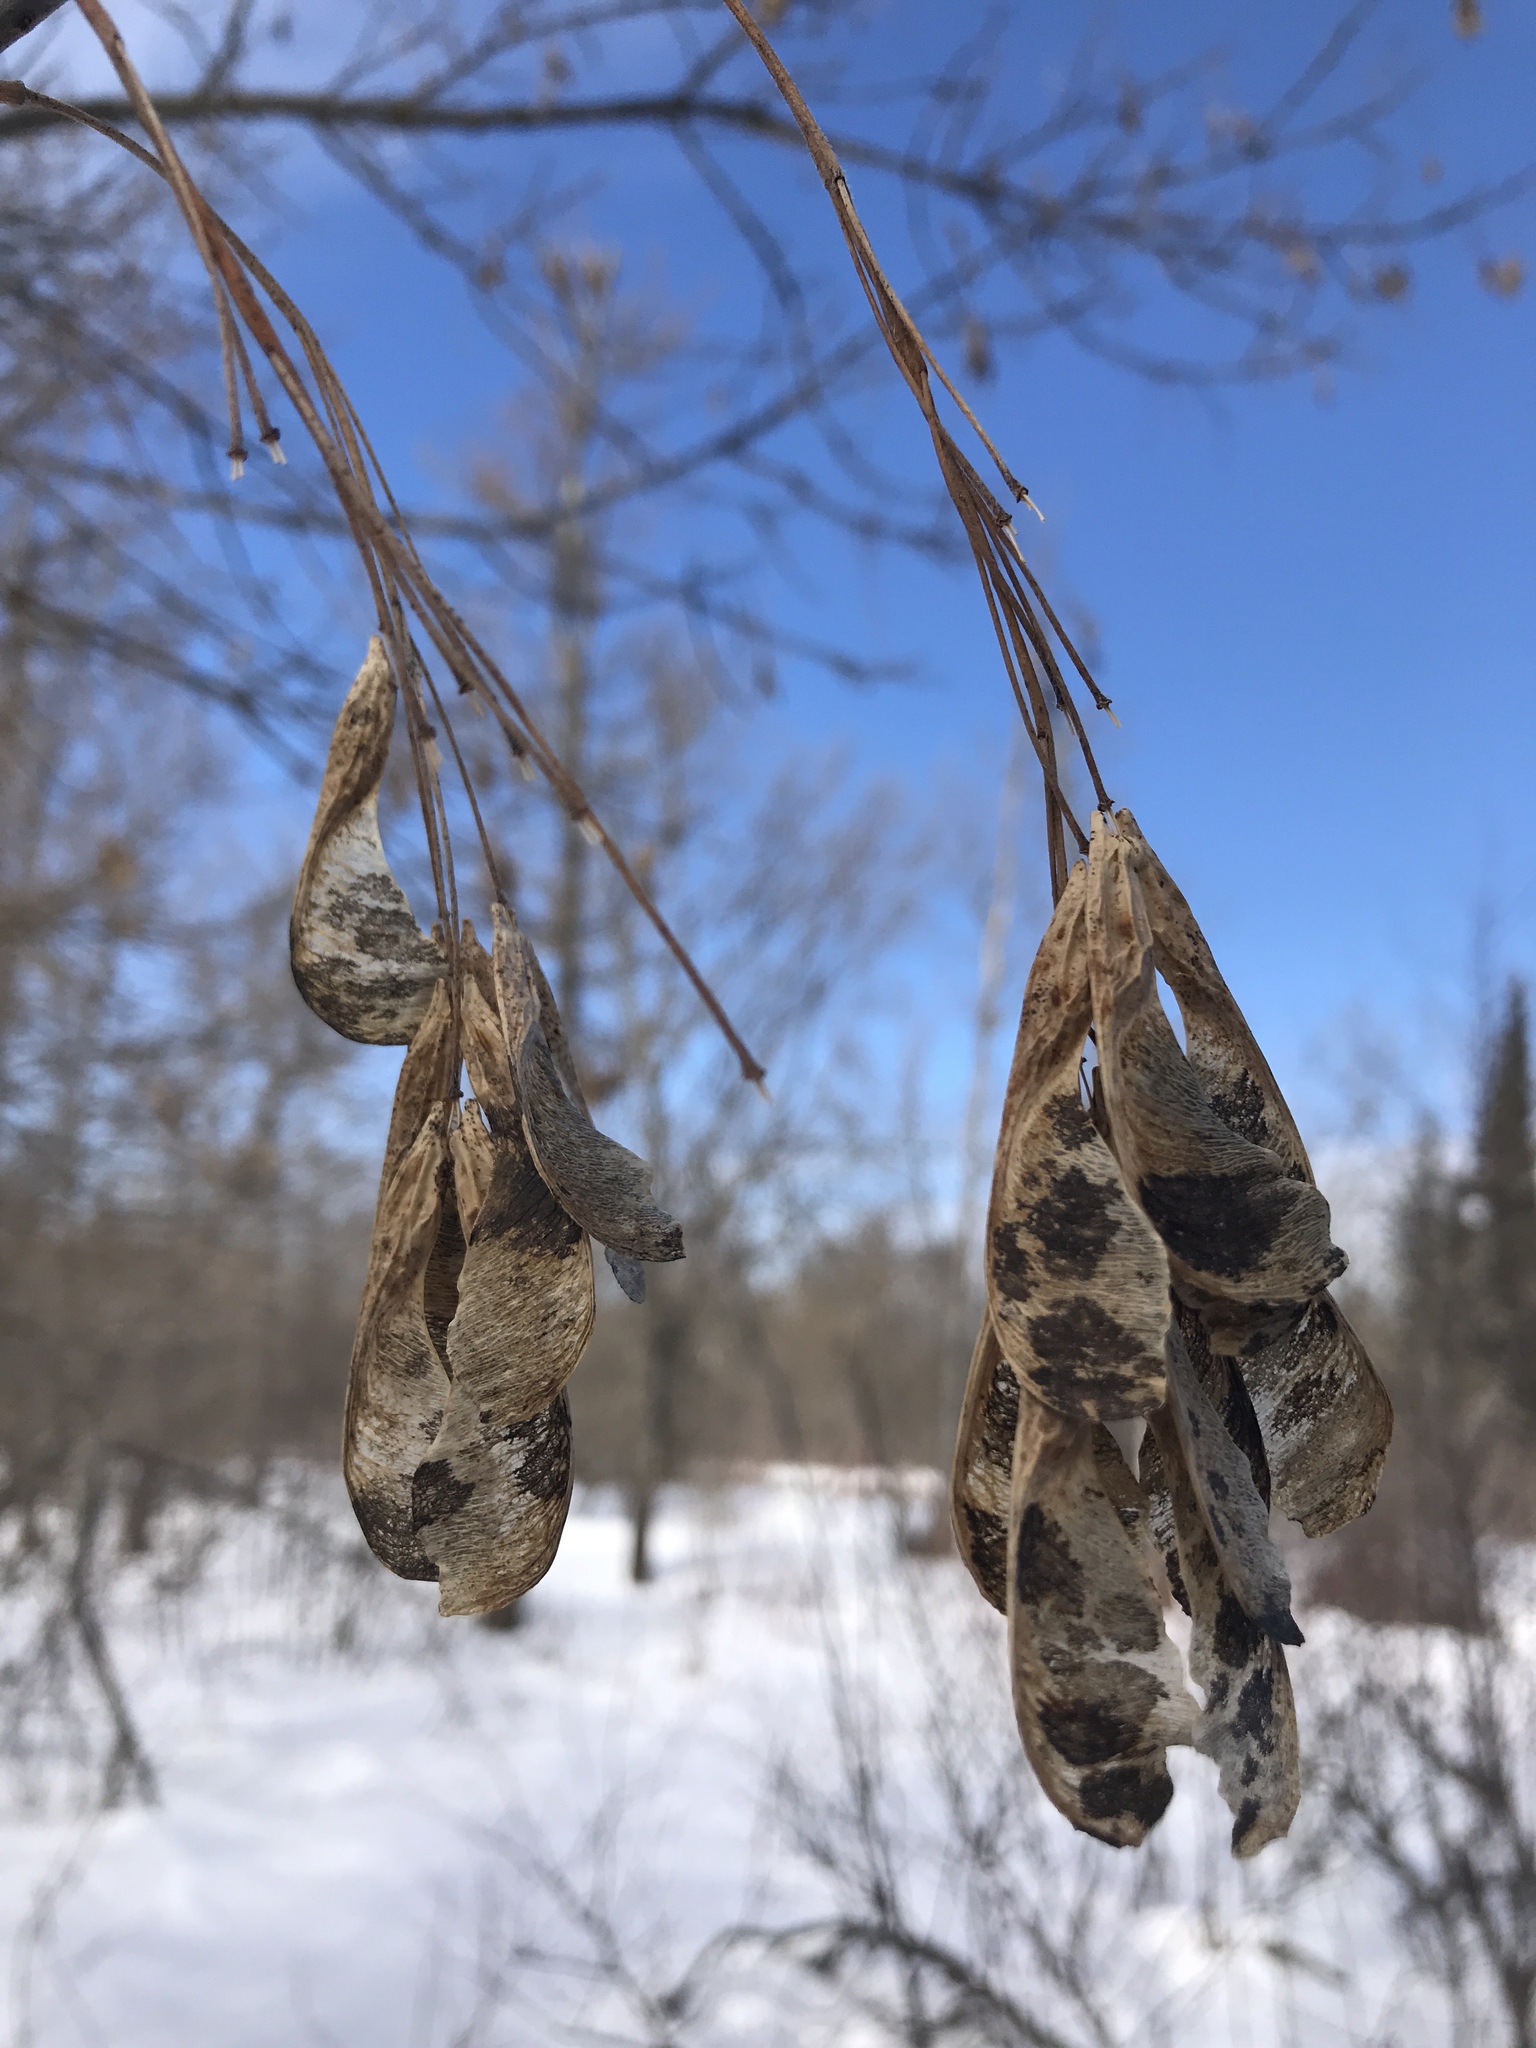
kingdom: Plantae
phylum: Tracheophyta
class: Magnoliopsida
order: Sapindales
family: Sapindaceae
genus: Acer
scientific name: Acer negundo
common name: Ashleaf maple
